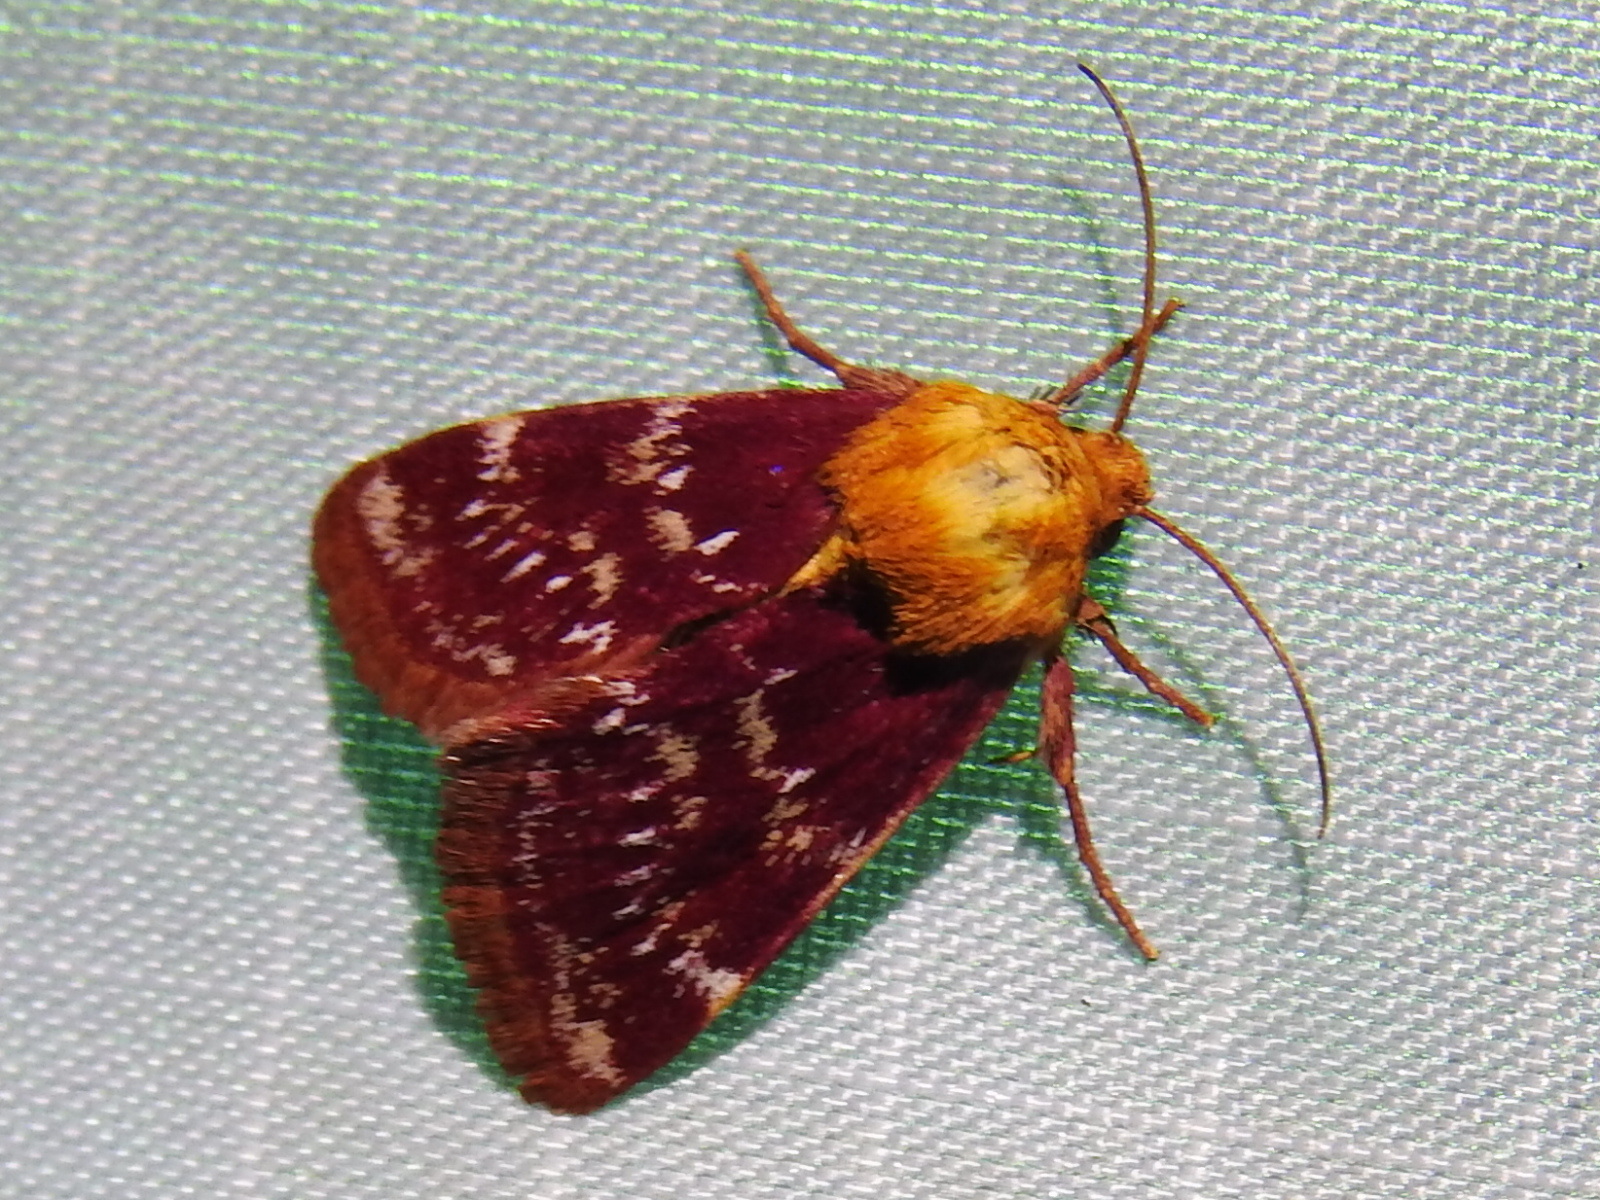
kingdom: Animalia
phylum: Arthropoda
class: Insecta
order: Lepidoptera
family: Noctuidae
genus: Schinia
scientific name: Schinia volupia
